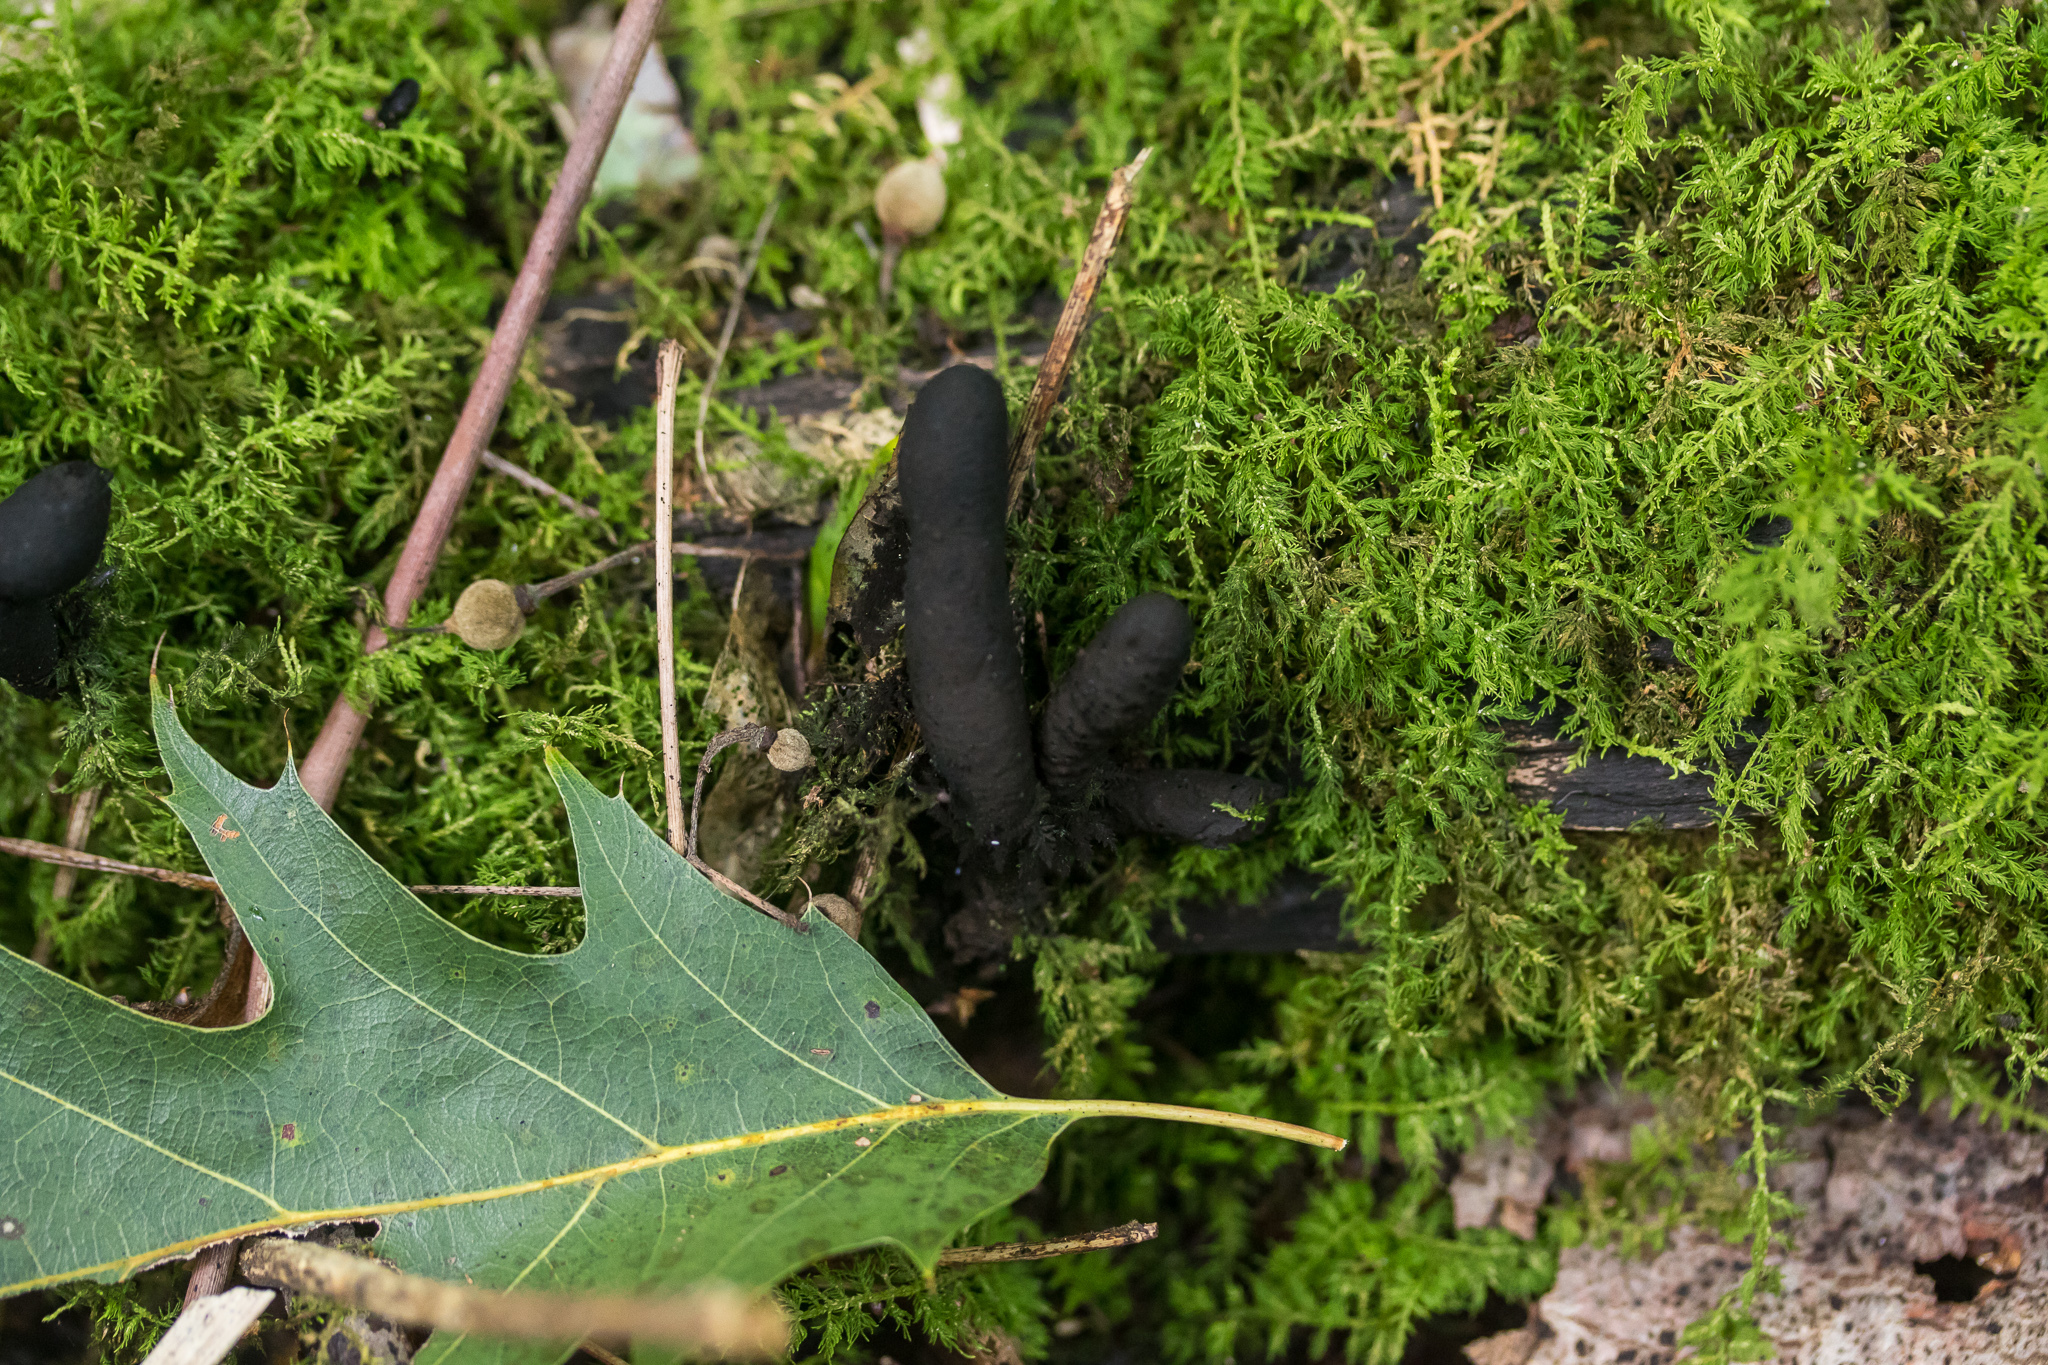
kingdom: Fungi
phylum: Ascomycota
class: Sordariomycetes
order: Xylariales
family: Xylariaceae
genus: Xylaria
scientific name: Xylaria longipes
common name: Dead moll's fingers
